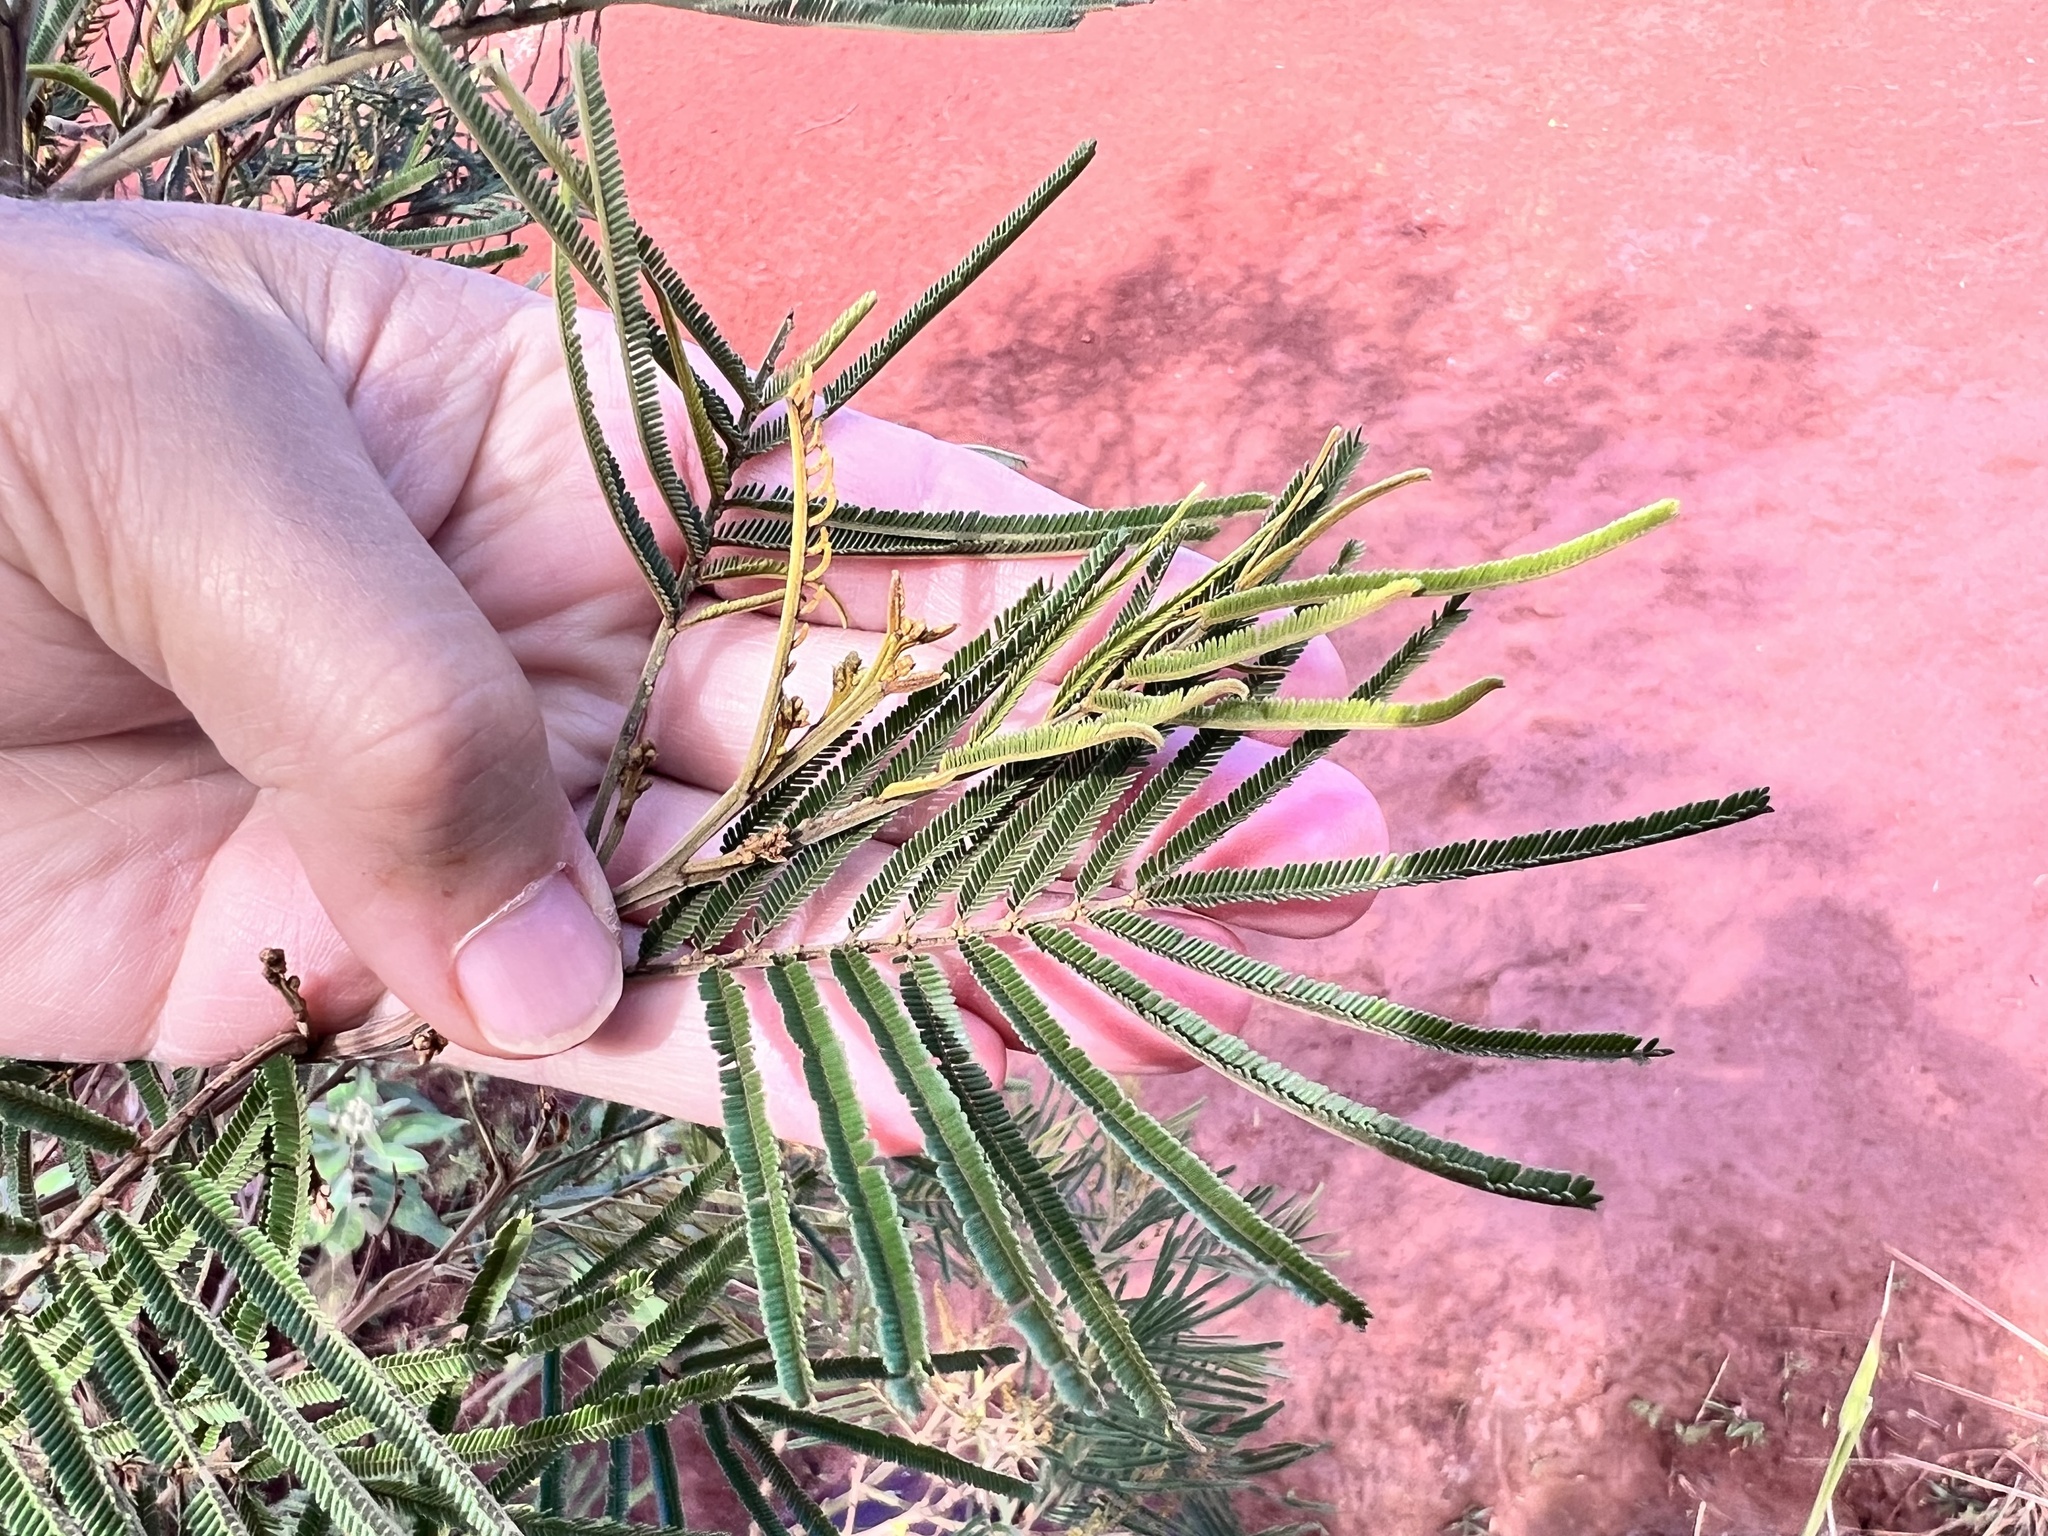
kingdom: Plantae
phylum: Tracheophyta
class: Magnoliopsida
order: Fabales
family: Fabaceae
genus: Acacia
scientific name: Acacia mearnsii
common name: Black wattle
